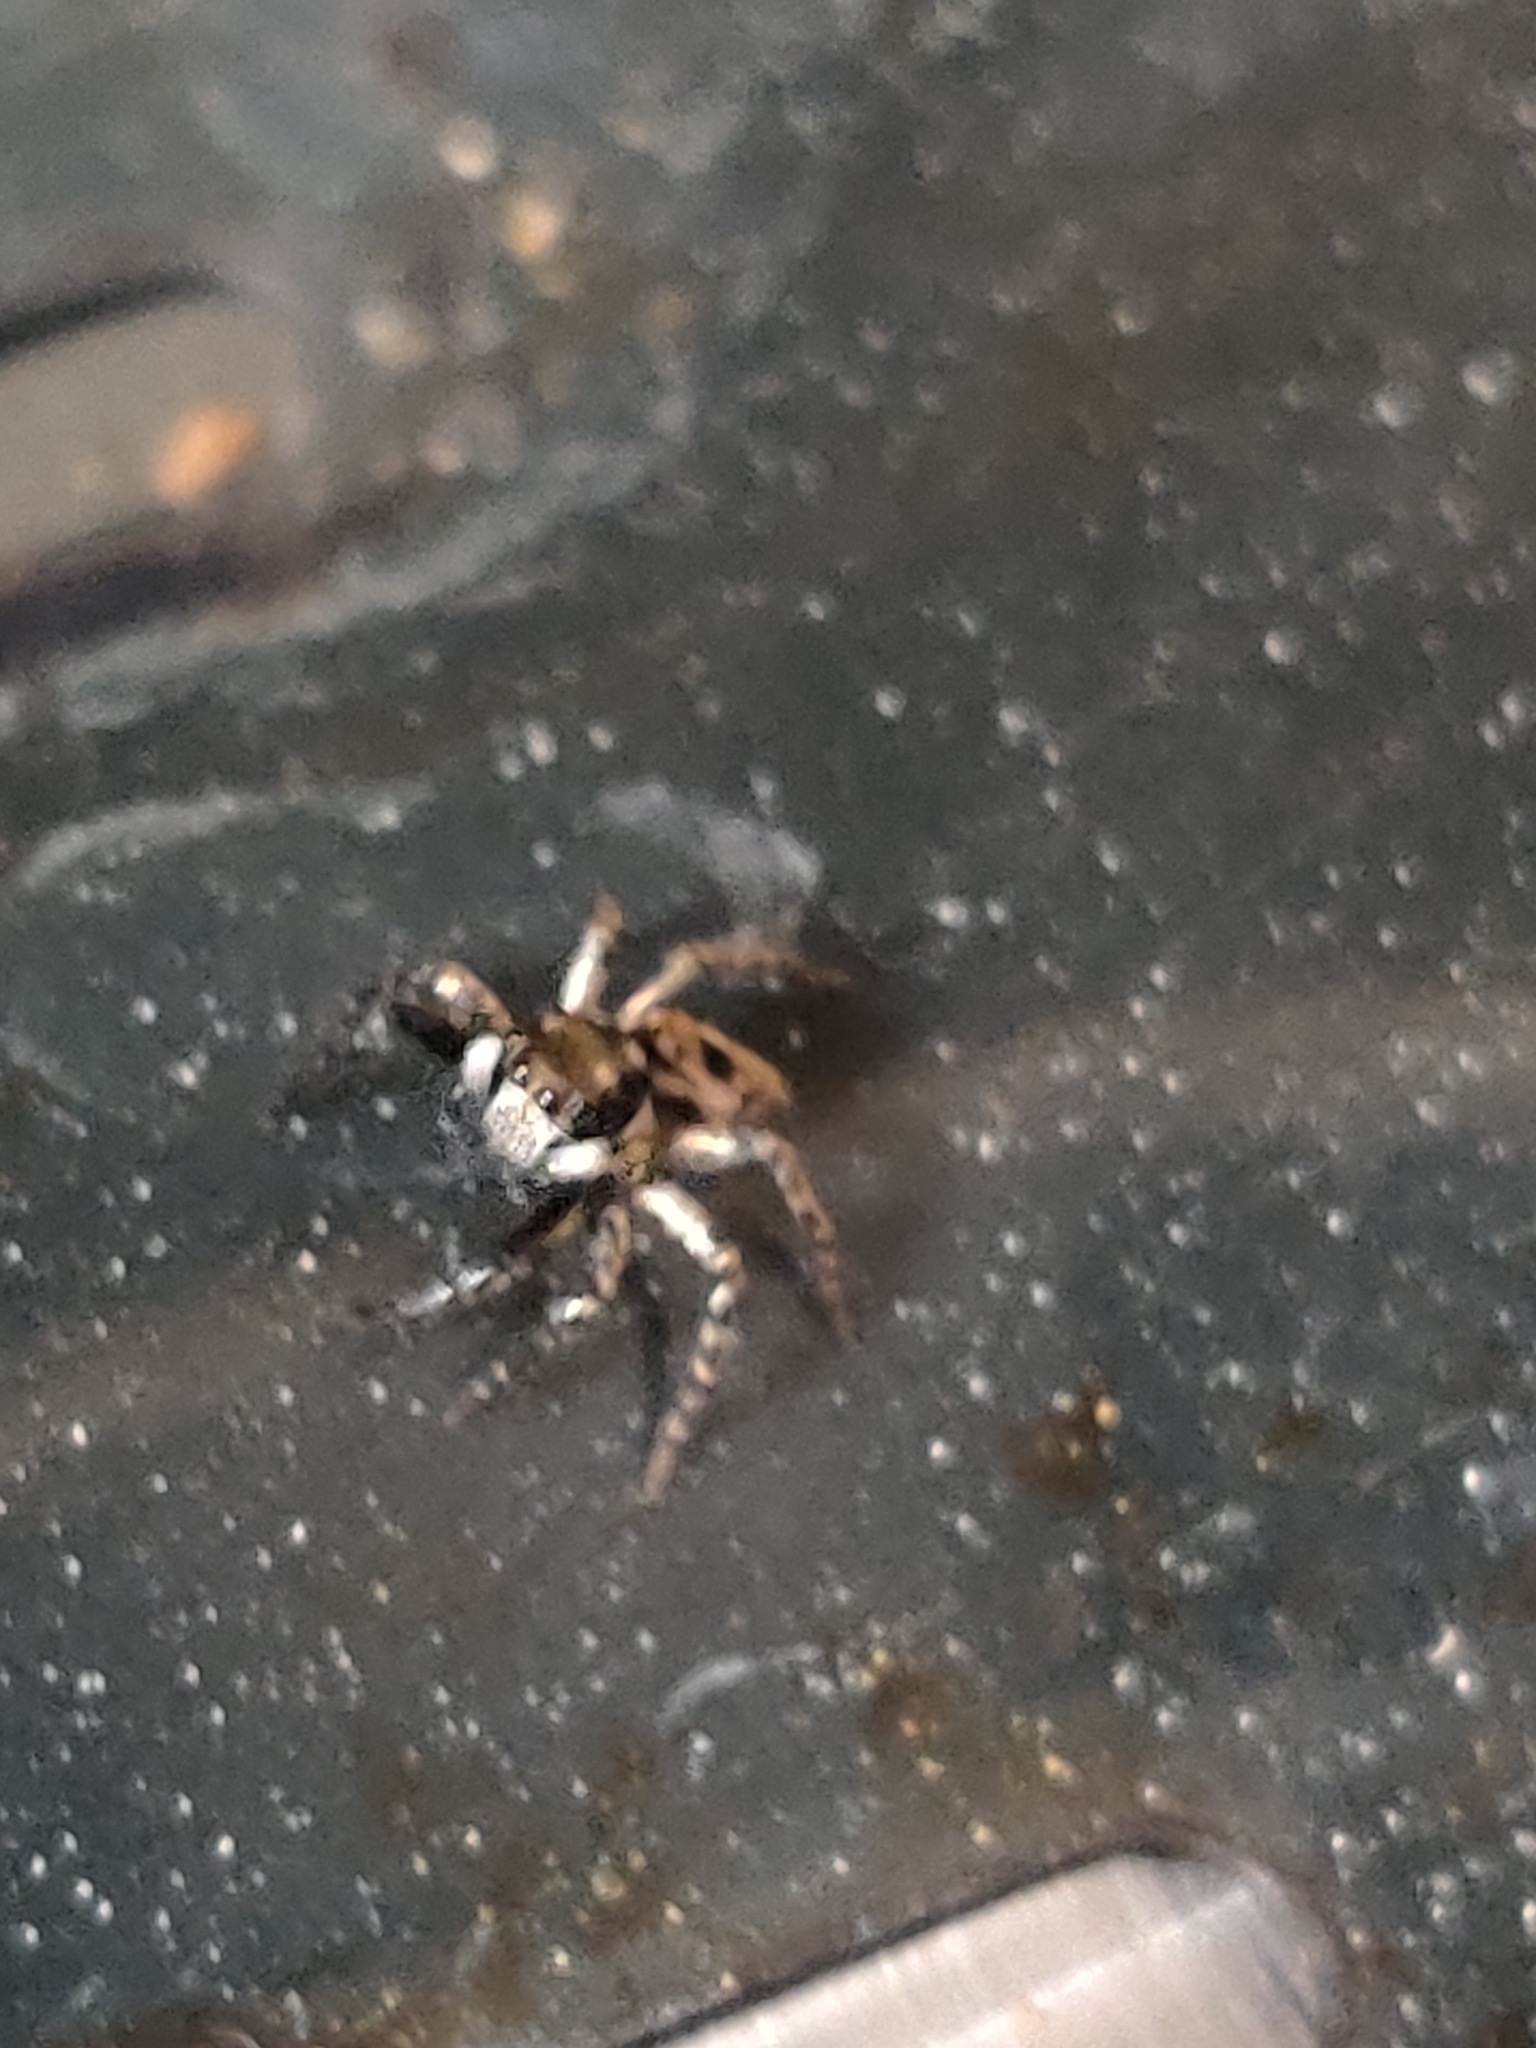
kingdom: Animalia
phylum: Arthropoda
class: Arachnida
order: Araneae
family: Salticidae
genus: Anasaitis
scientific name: Anasaitis canosa
